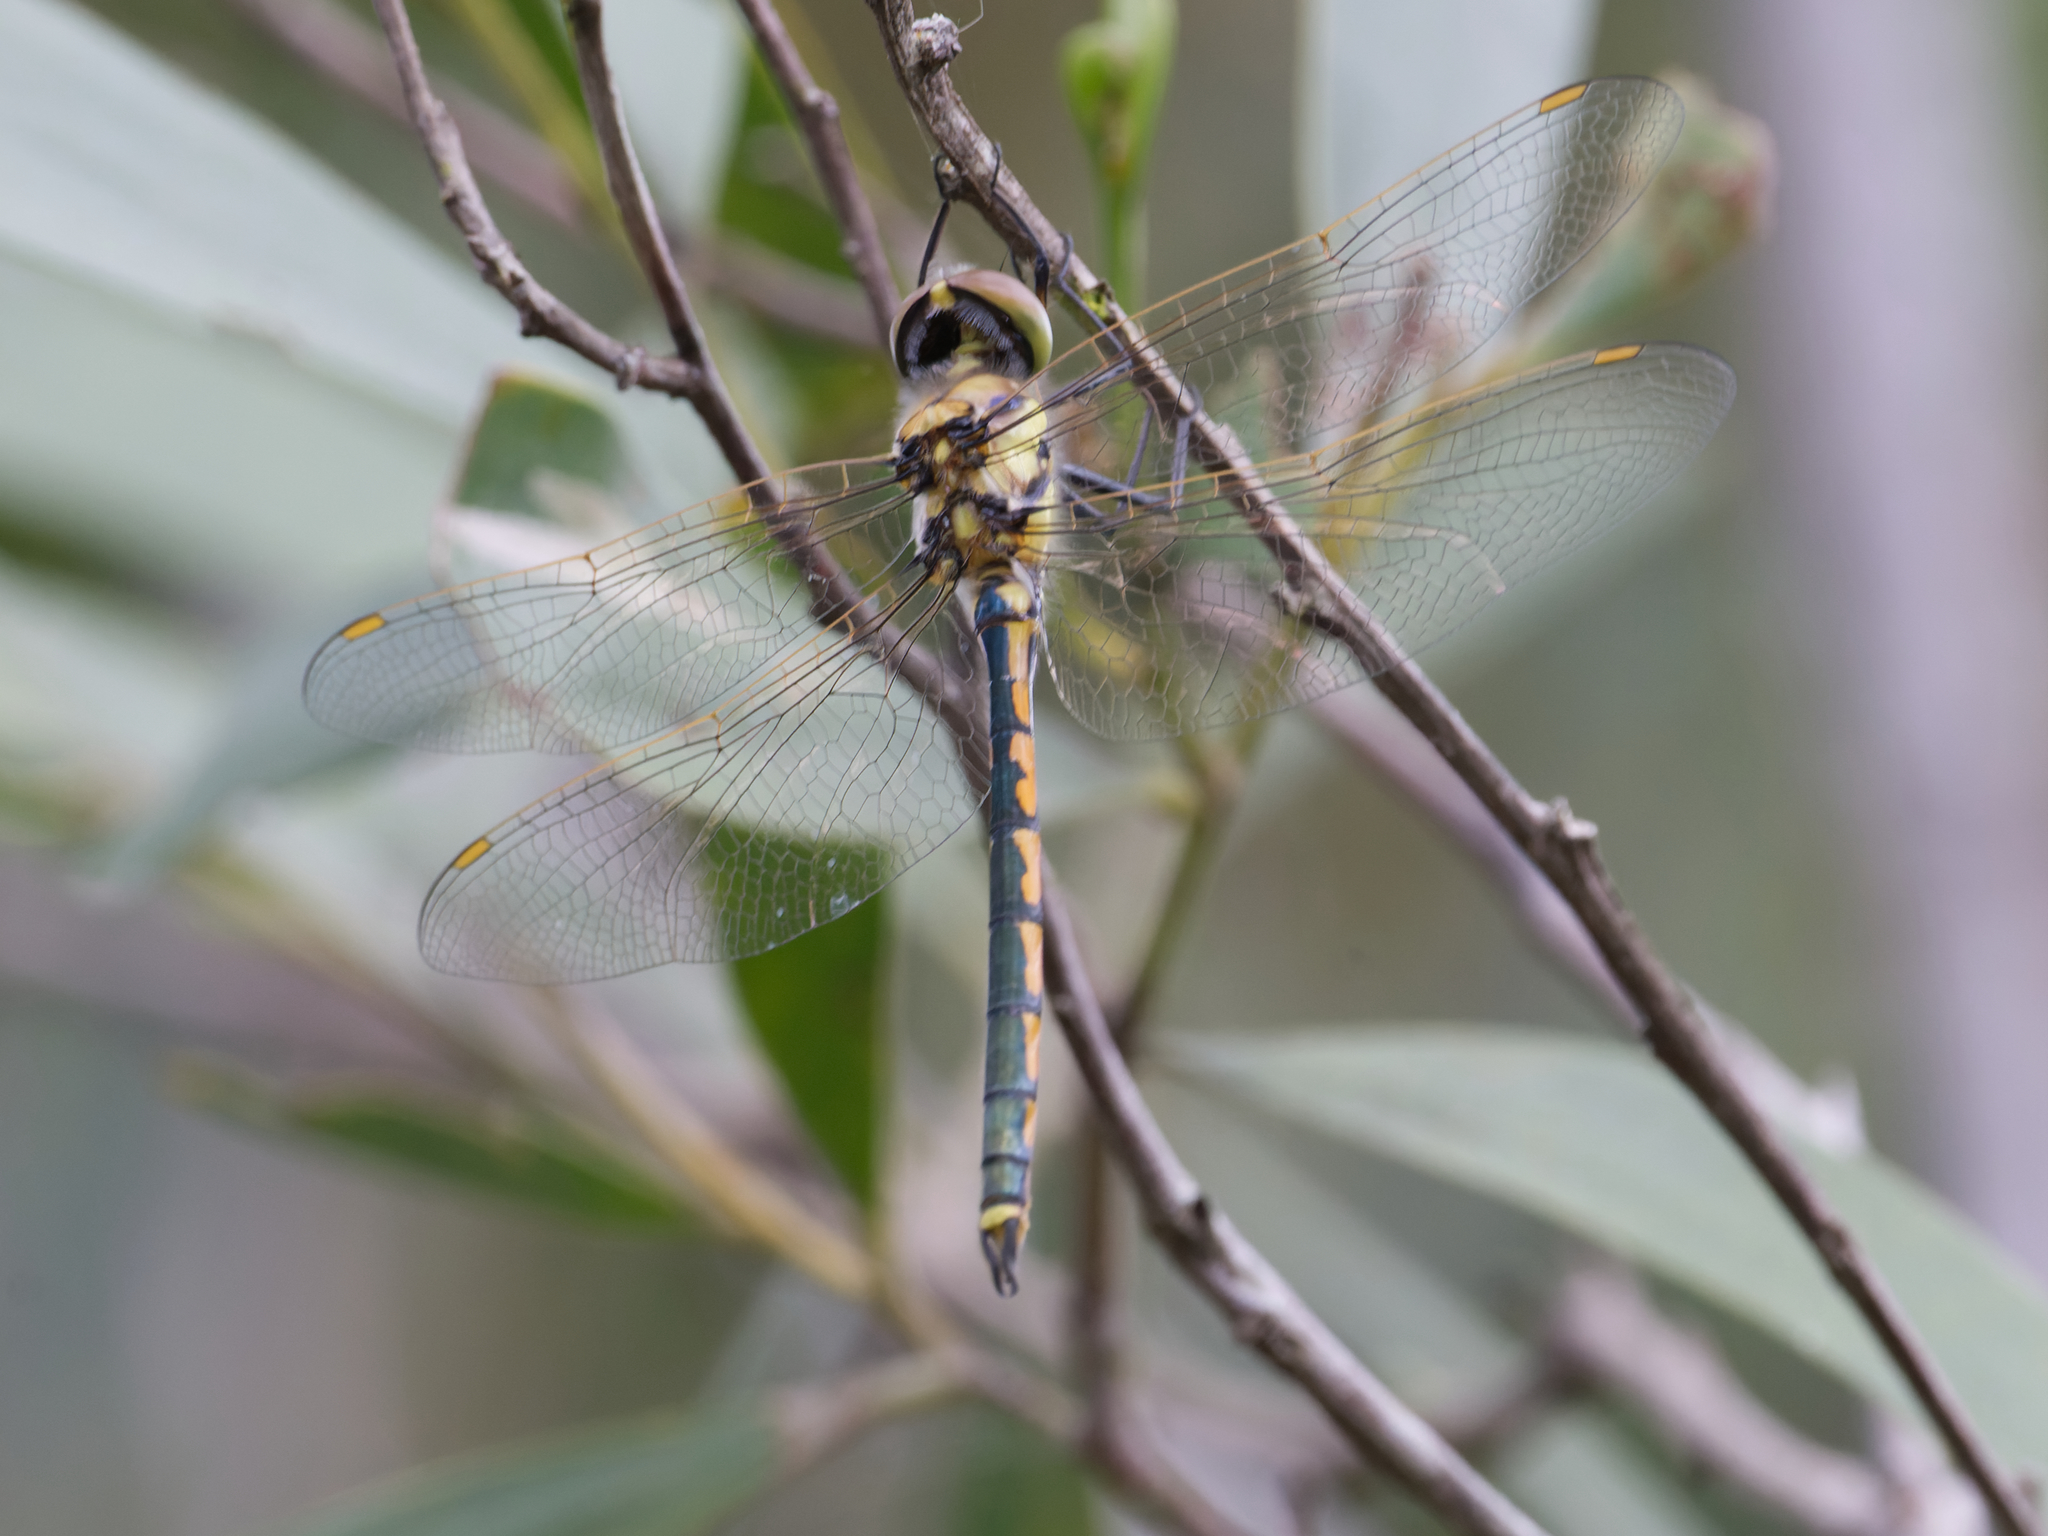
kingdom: Animalia
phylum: Arthropoda
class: Insecta
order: Odonata
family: Corduliidae
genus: Hemicordulia
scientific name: Hemicordulia tau
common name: Tau emerald
